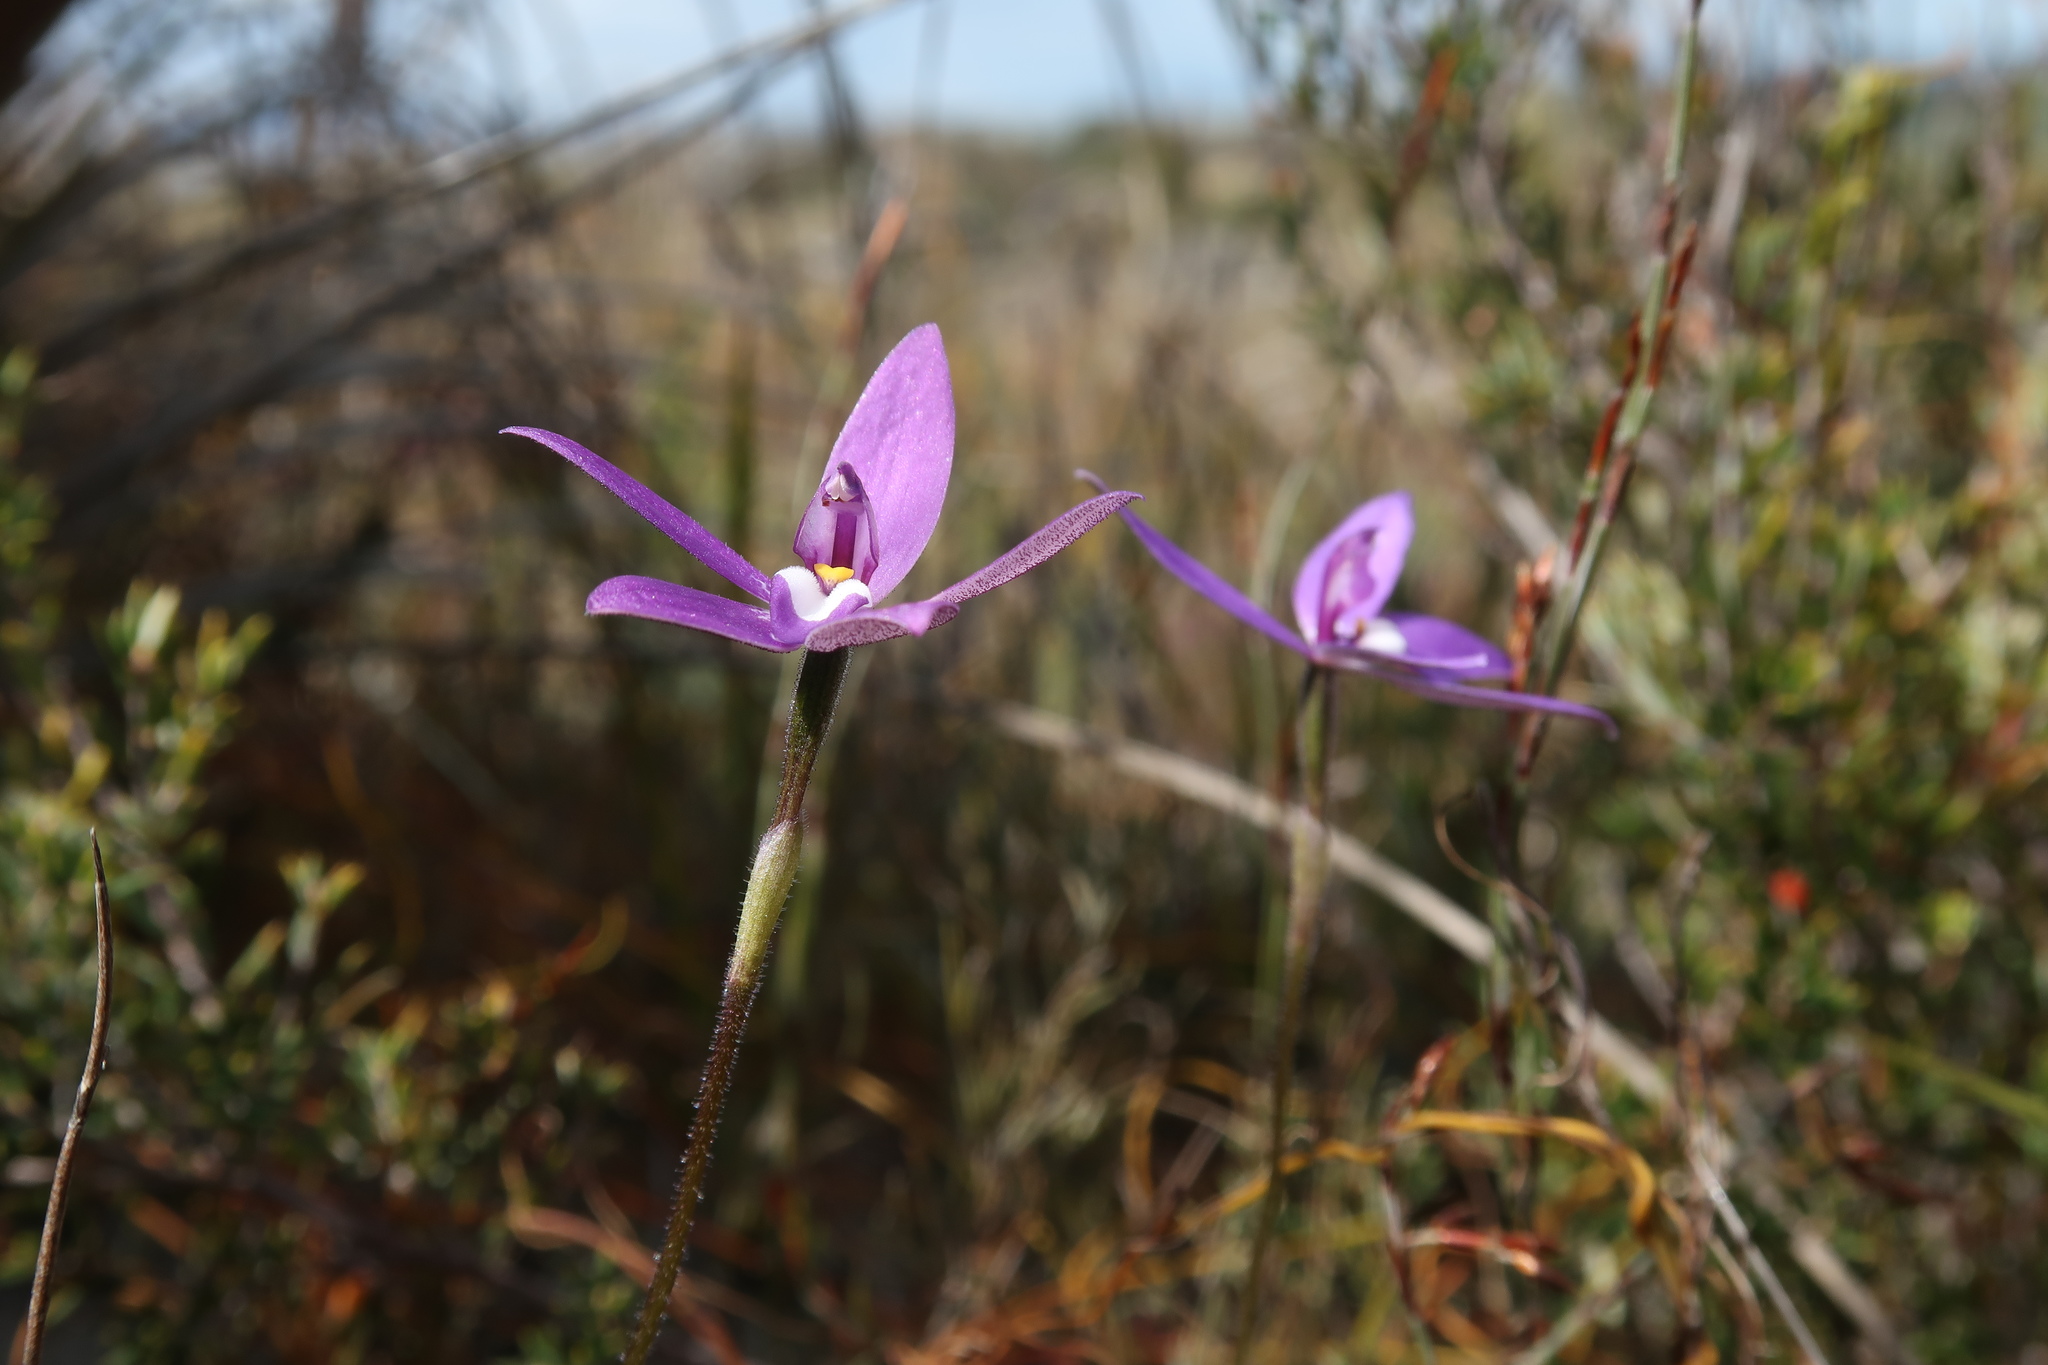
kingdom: Plantae
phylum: Tracheophyta
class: Liliopsida
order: Asparagales
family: Orchidaceae
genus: Caladenia
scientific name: Caladenia major
